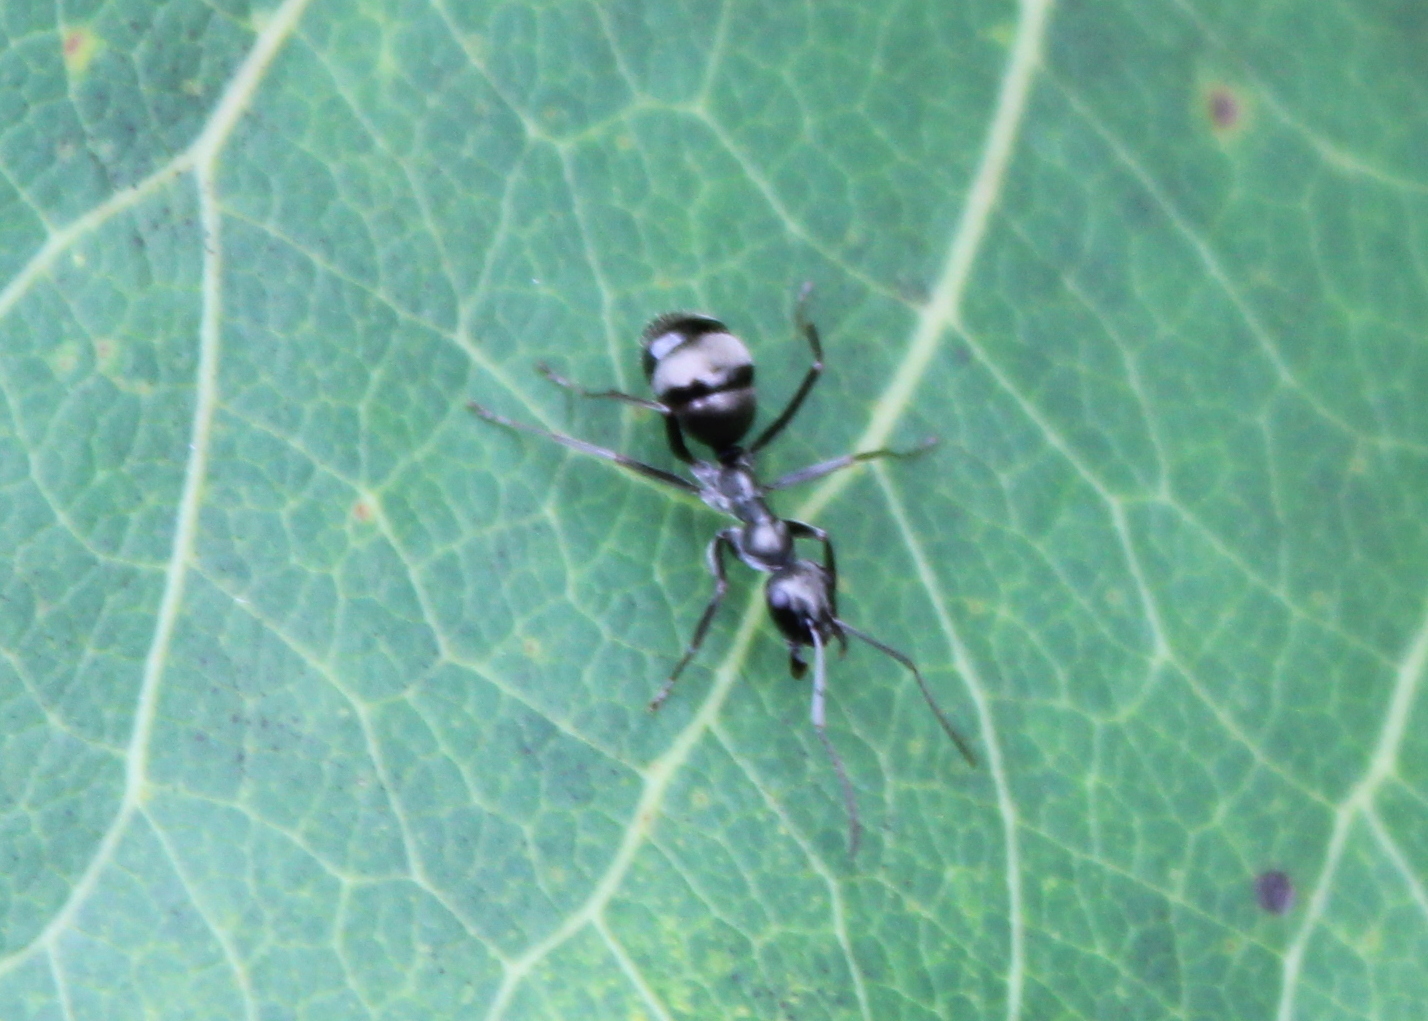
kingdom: Animalia
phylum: Arthropoda
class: Insecta
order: Hymenoptera
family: Formicidae
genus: Formica
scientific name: Formica
